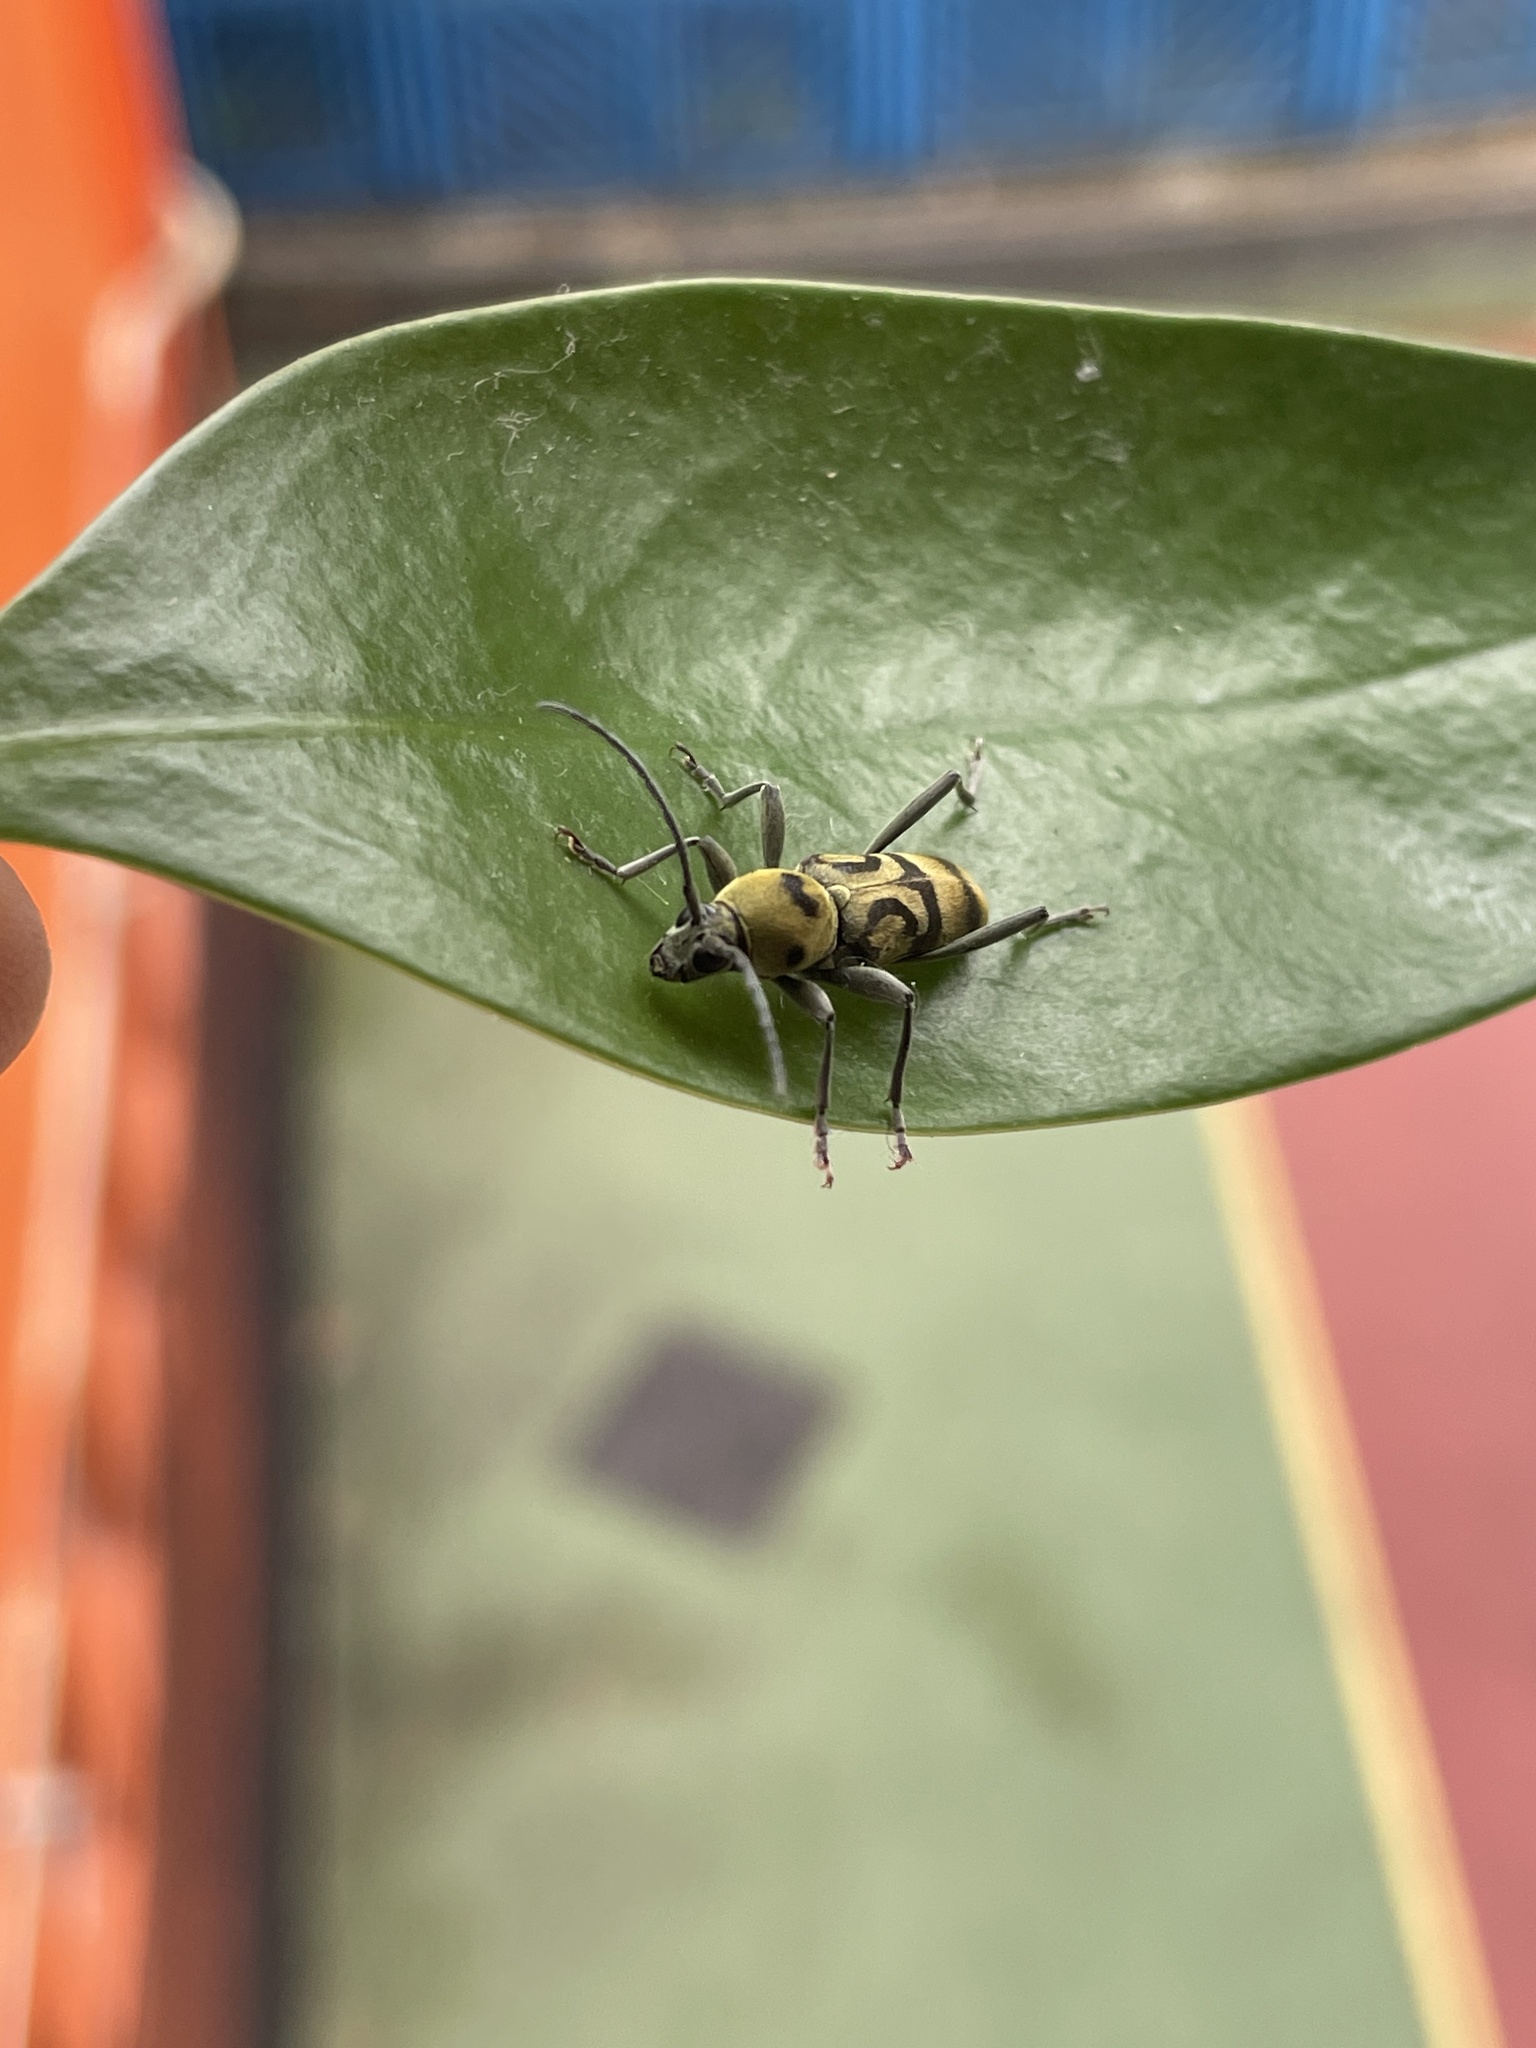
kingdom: Animalia
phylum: Arthropoda
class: Insecta
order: Coleoptera
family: Cerambycidae
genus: Chlorophorus
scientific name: Chlorophorus signaticollis
